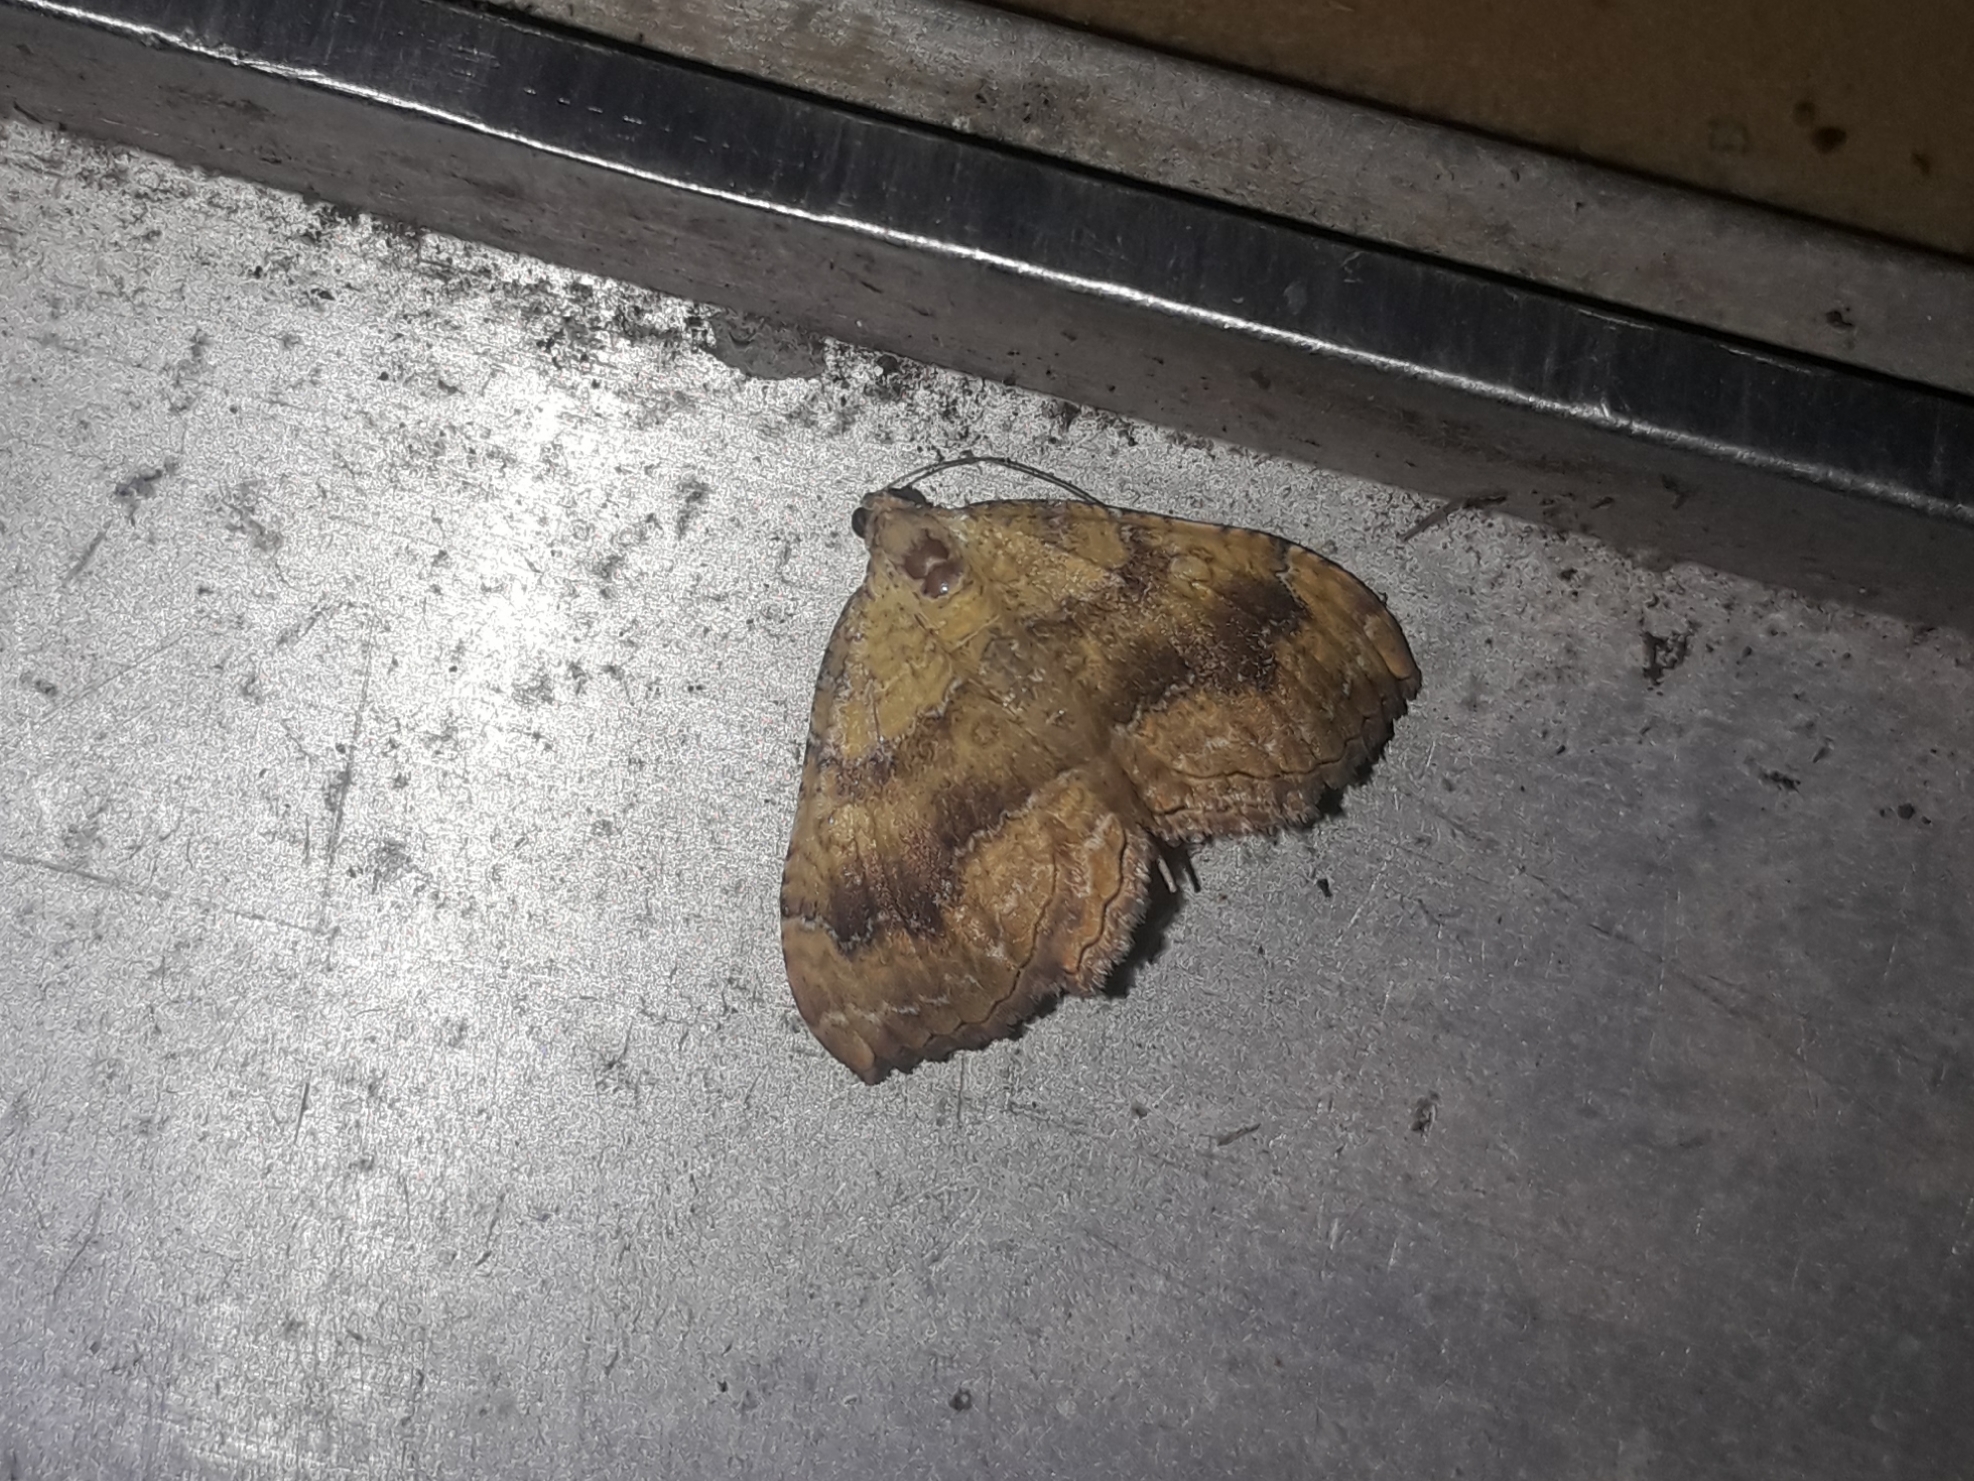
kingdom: Animalia
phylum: Arthropoda
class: Insecta
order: Lepidoptera
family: Geometridae
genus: Camptogramma
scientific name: Camptogramma bilineata
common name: Yellow shell
